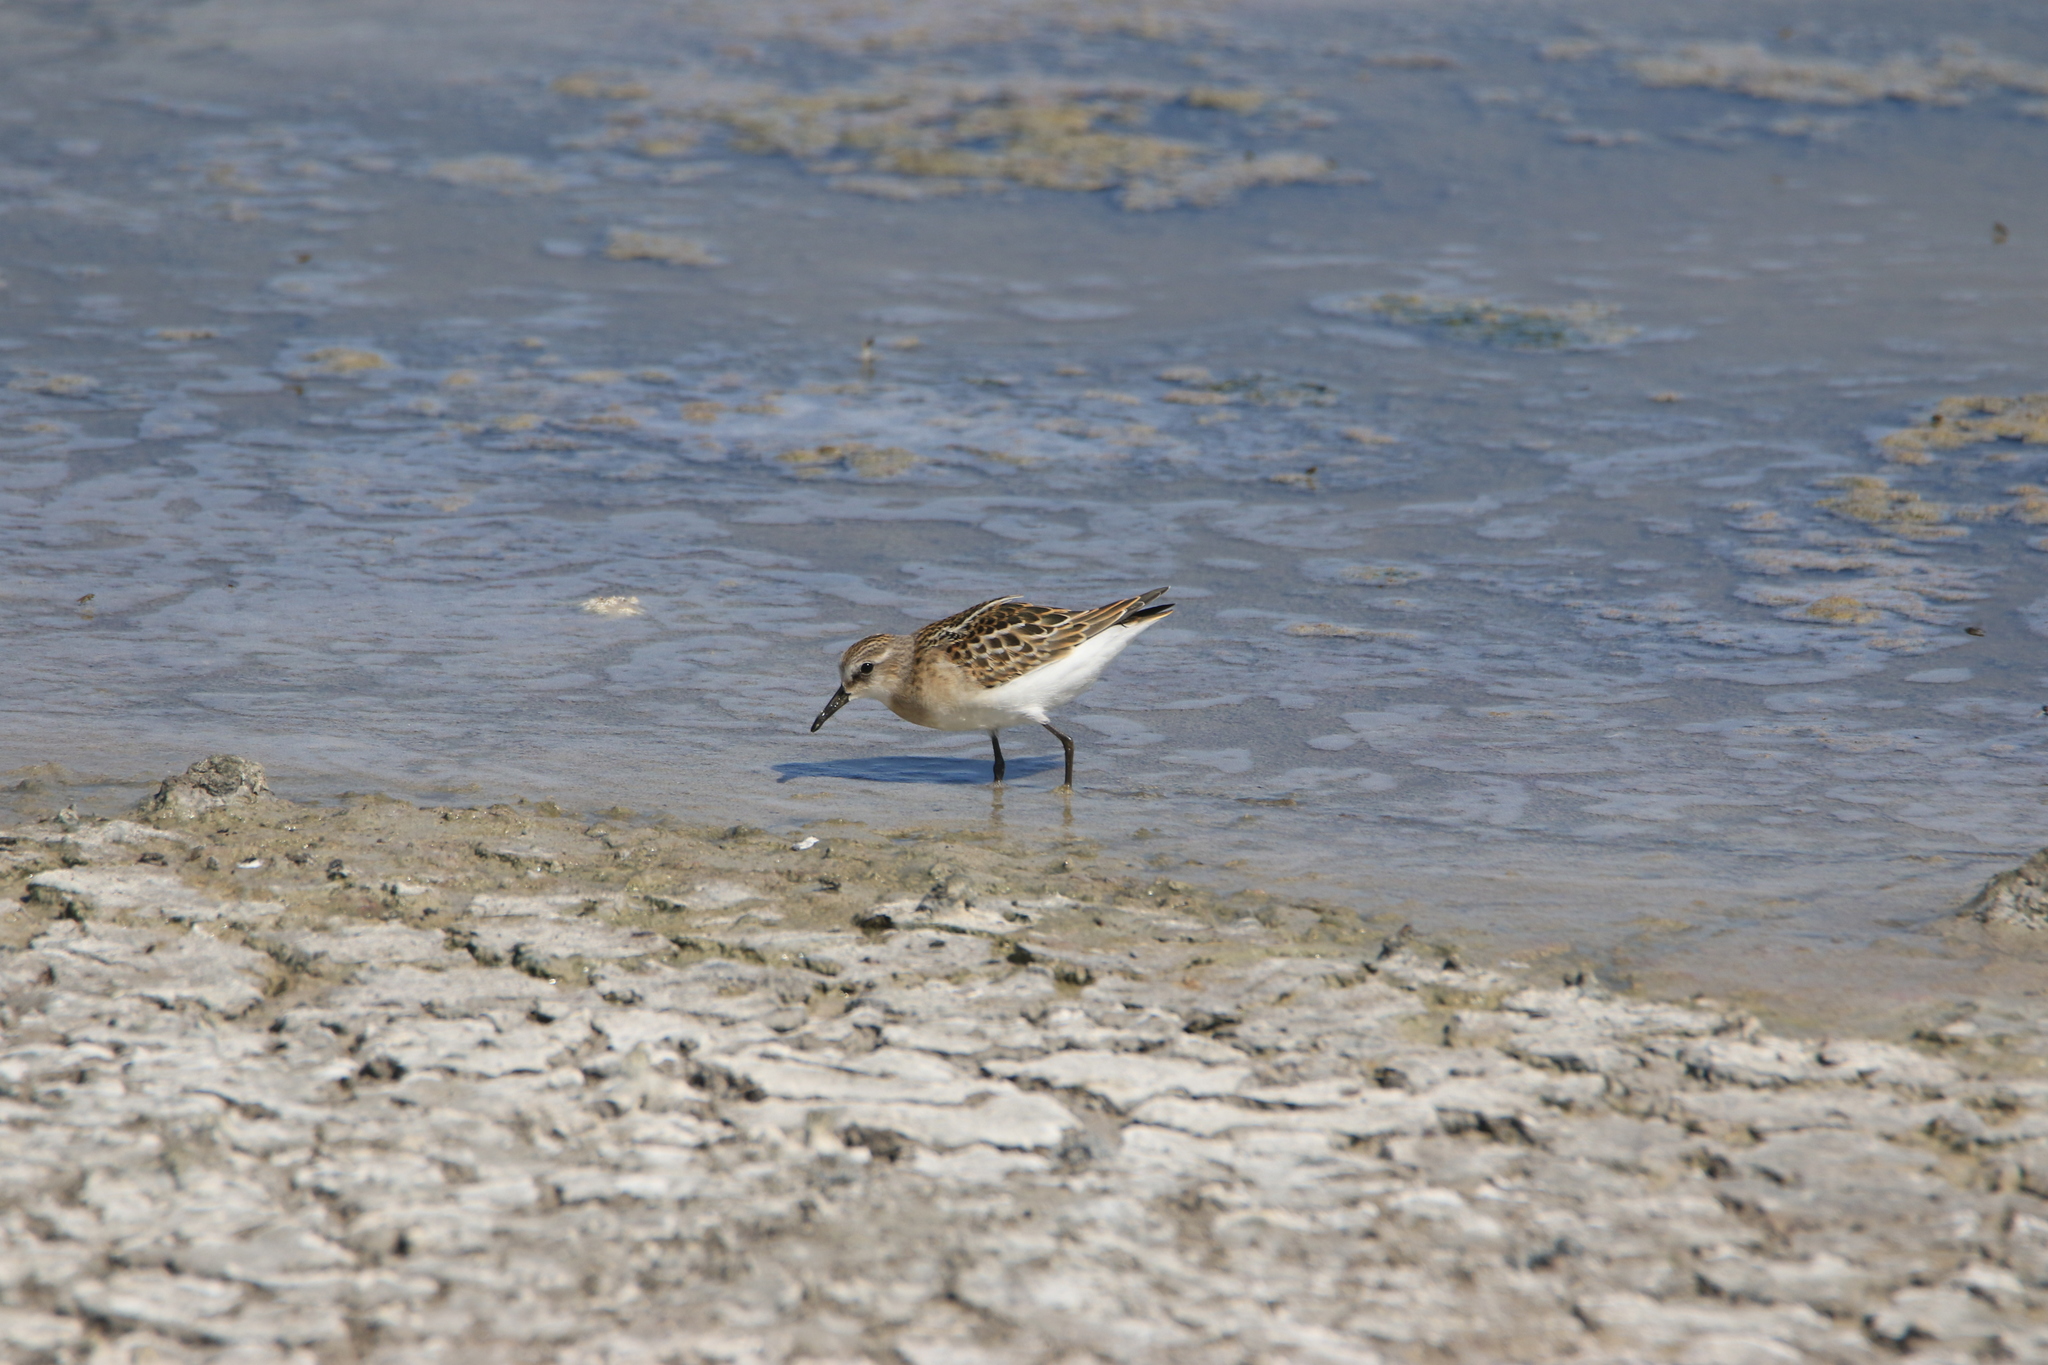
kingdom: Animalia
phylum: Chordata
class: Aves
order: Charadriiformes
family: Scolopacidae
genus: Calidris
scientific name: Calidris minuta
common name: Little stint
